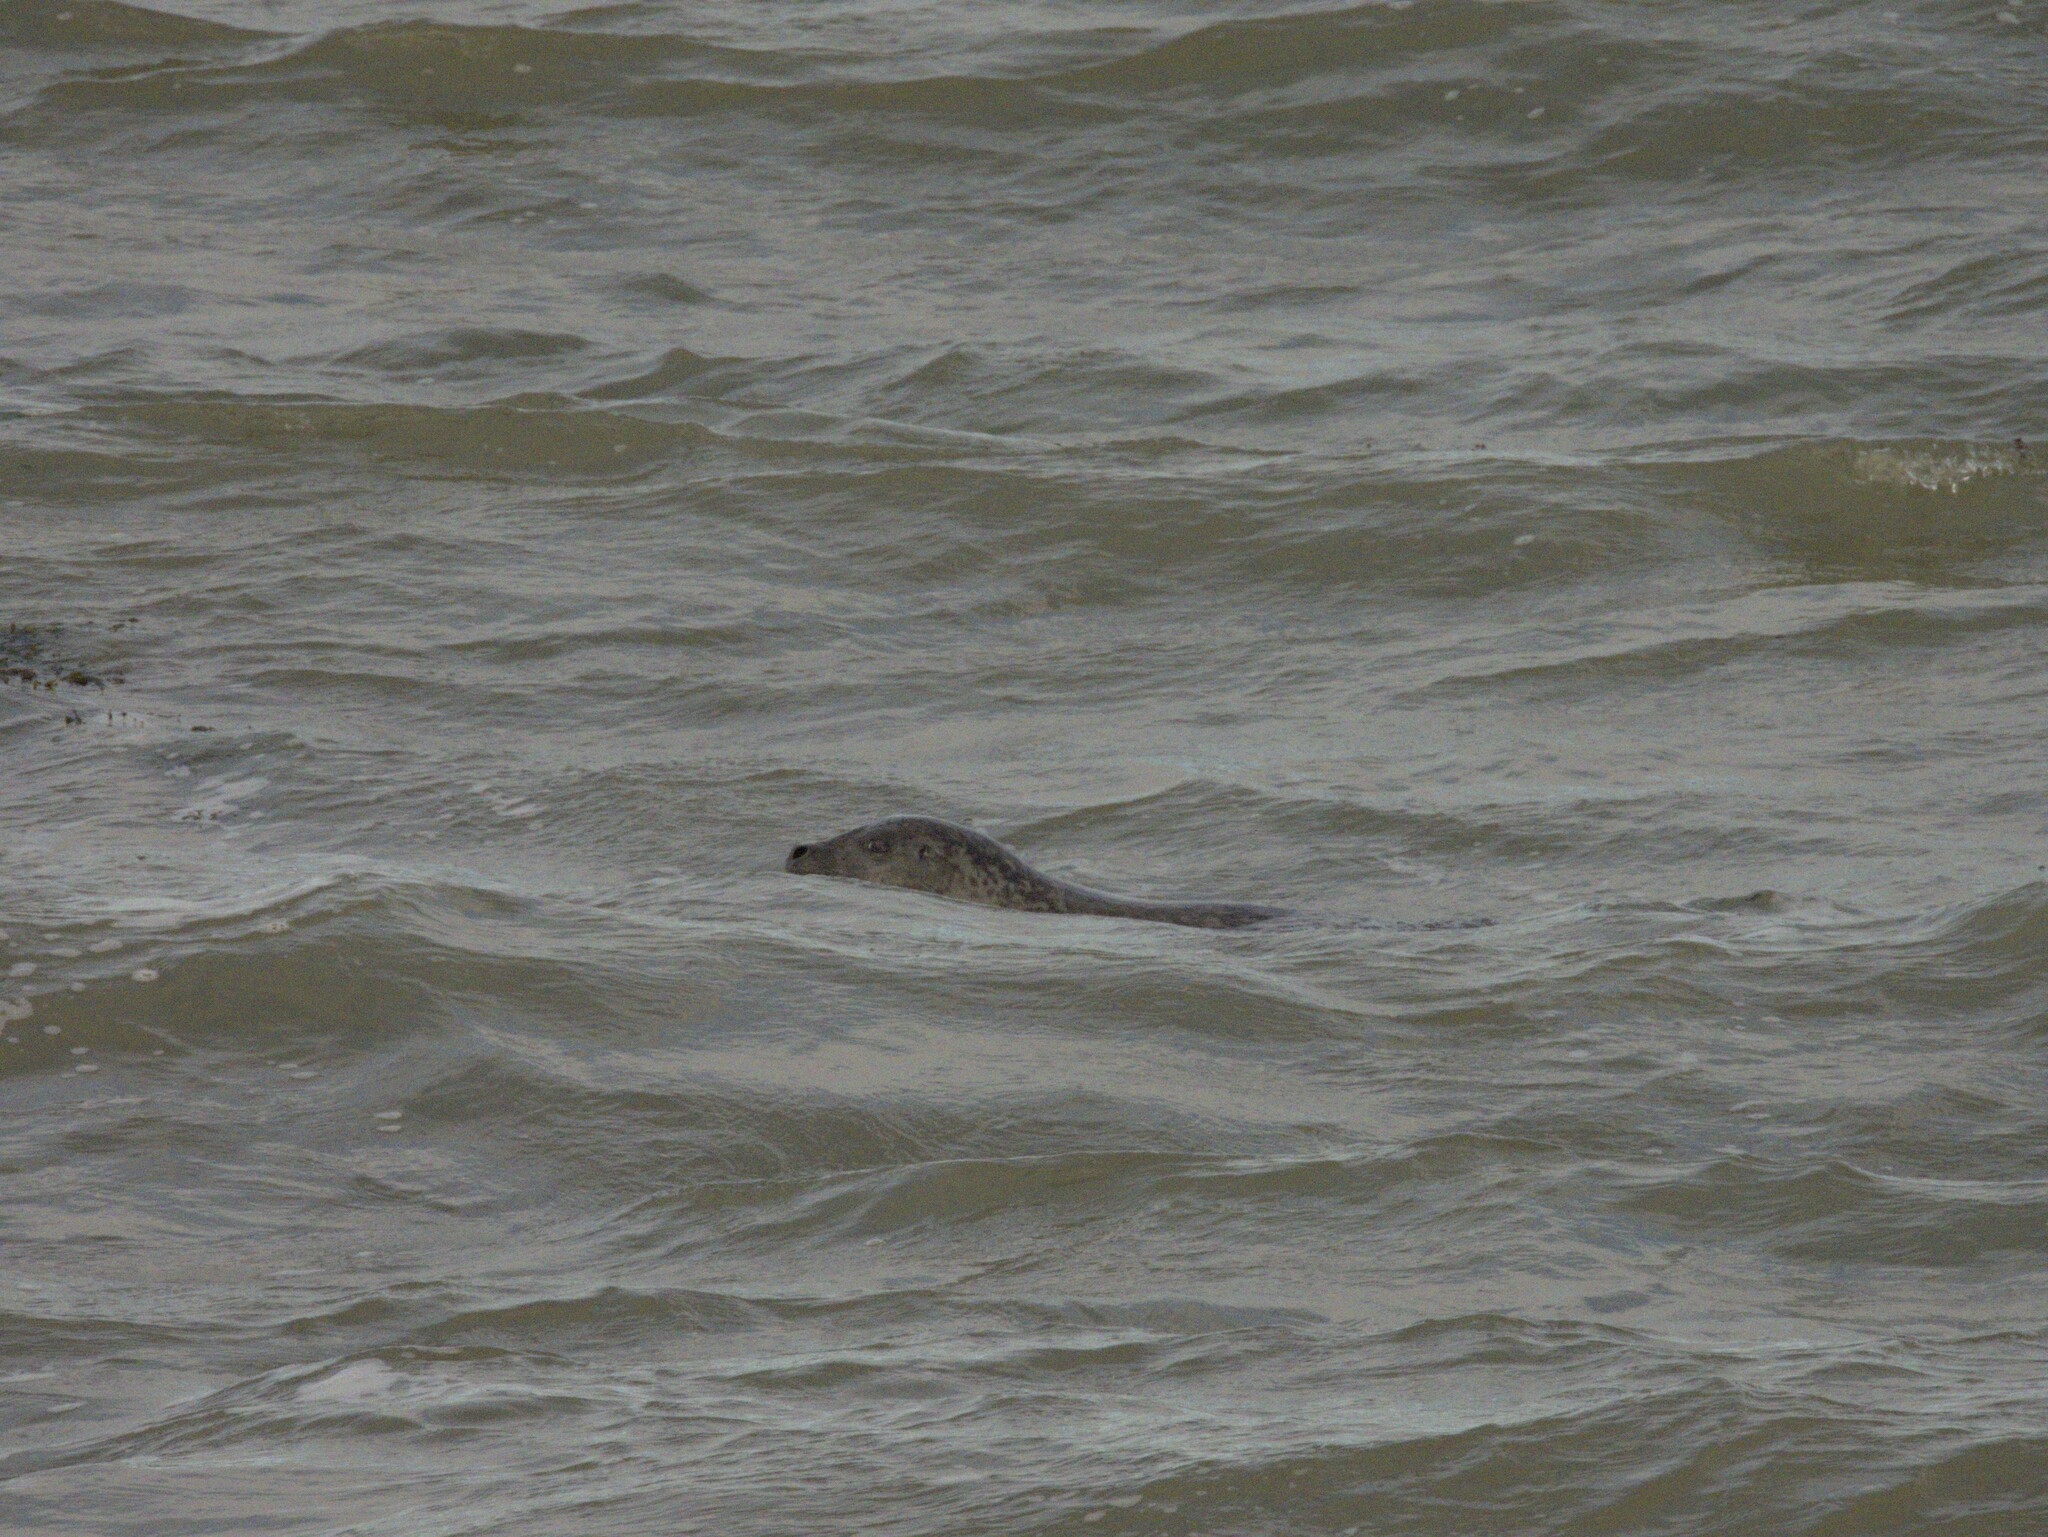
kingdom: Animalia
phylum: Chordata
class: Mammalia
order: Carnivora
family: Phocidae
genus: Phoca
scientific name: Phoca vitulina
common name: Harbor seal
